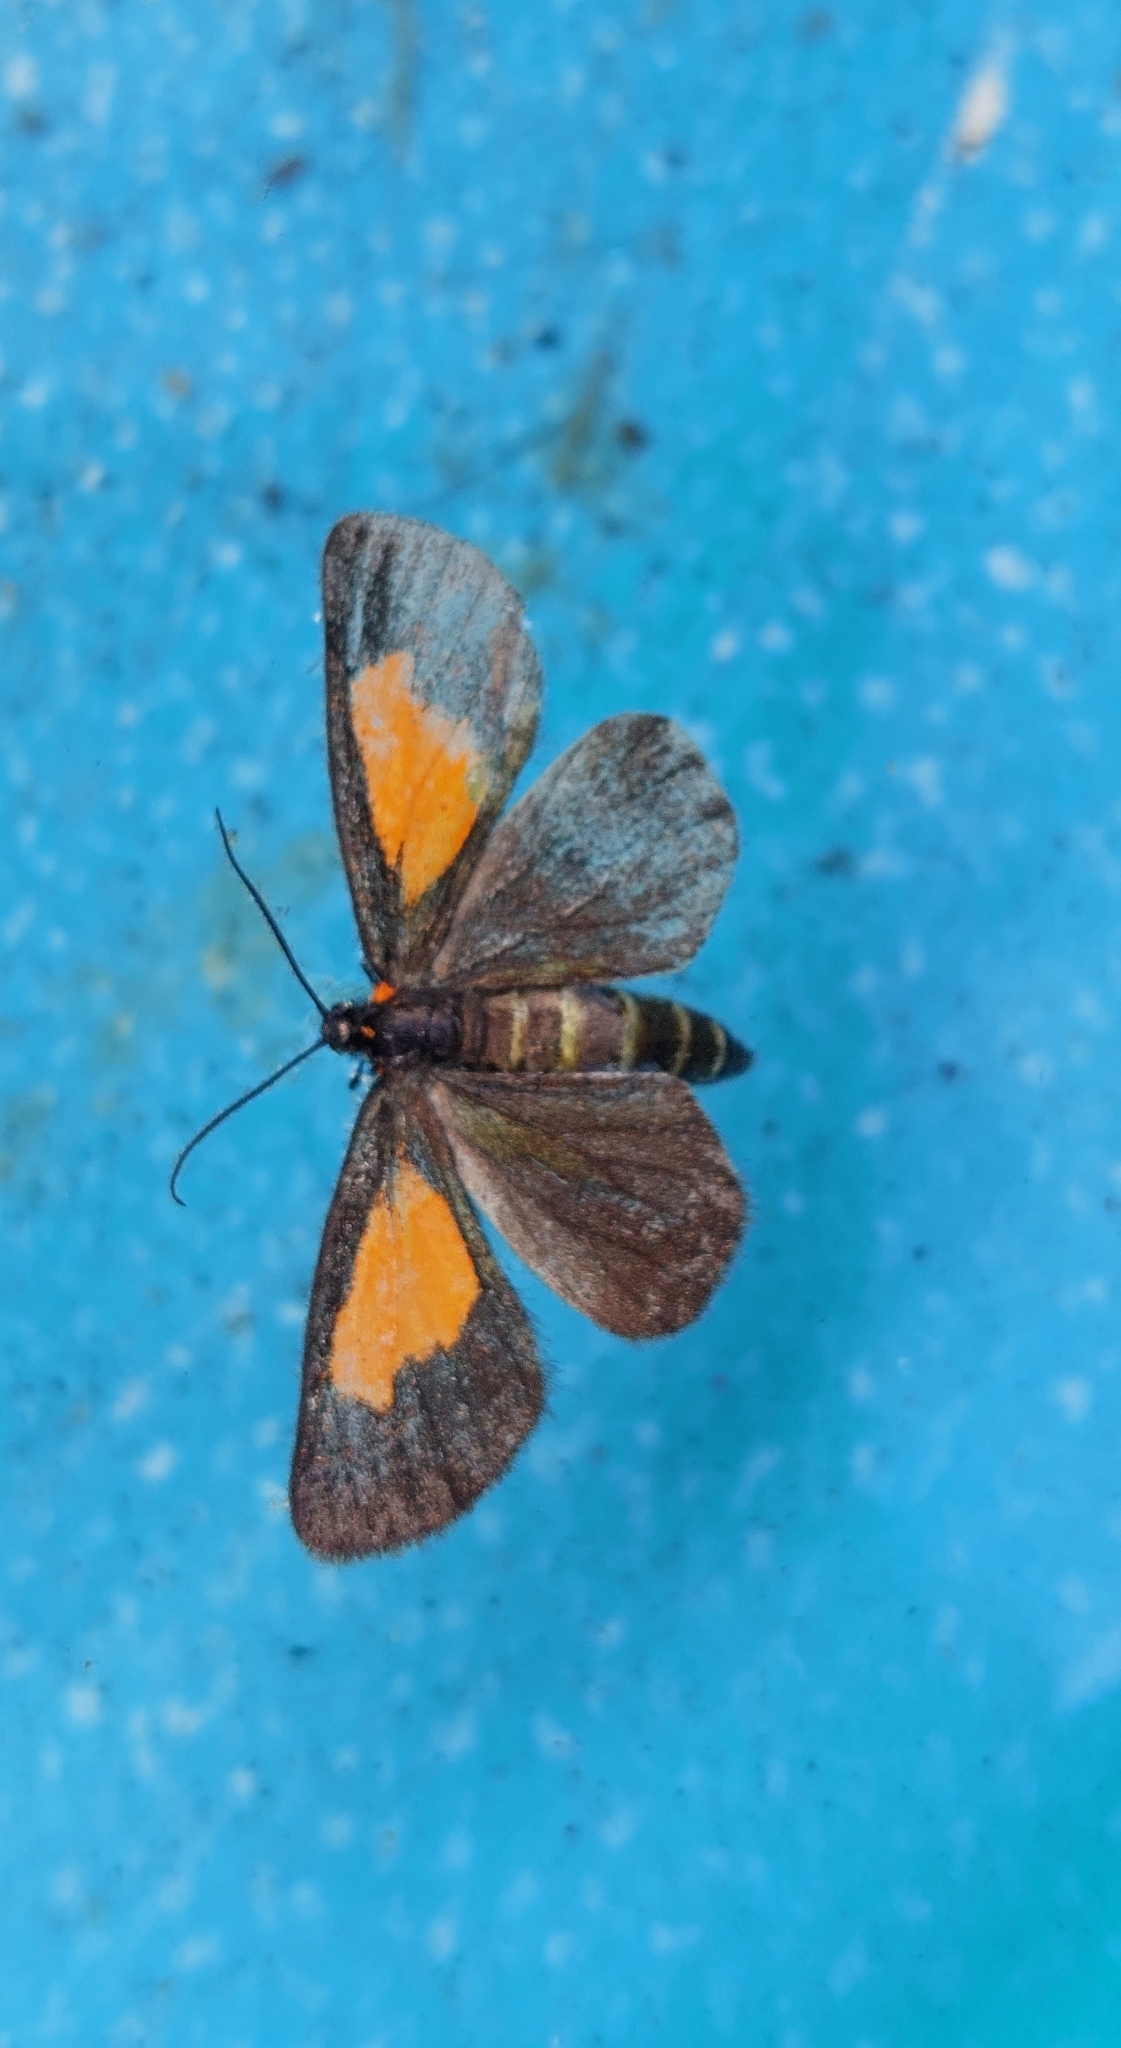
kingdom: Animalia
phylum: Arthropoda
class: Insecta
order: Lepidoptera
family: Geometridae
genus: Drymoea
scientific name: Drymoea
